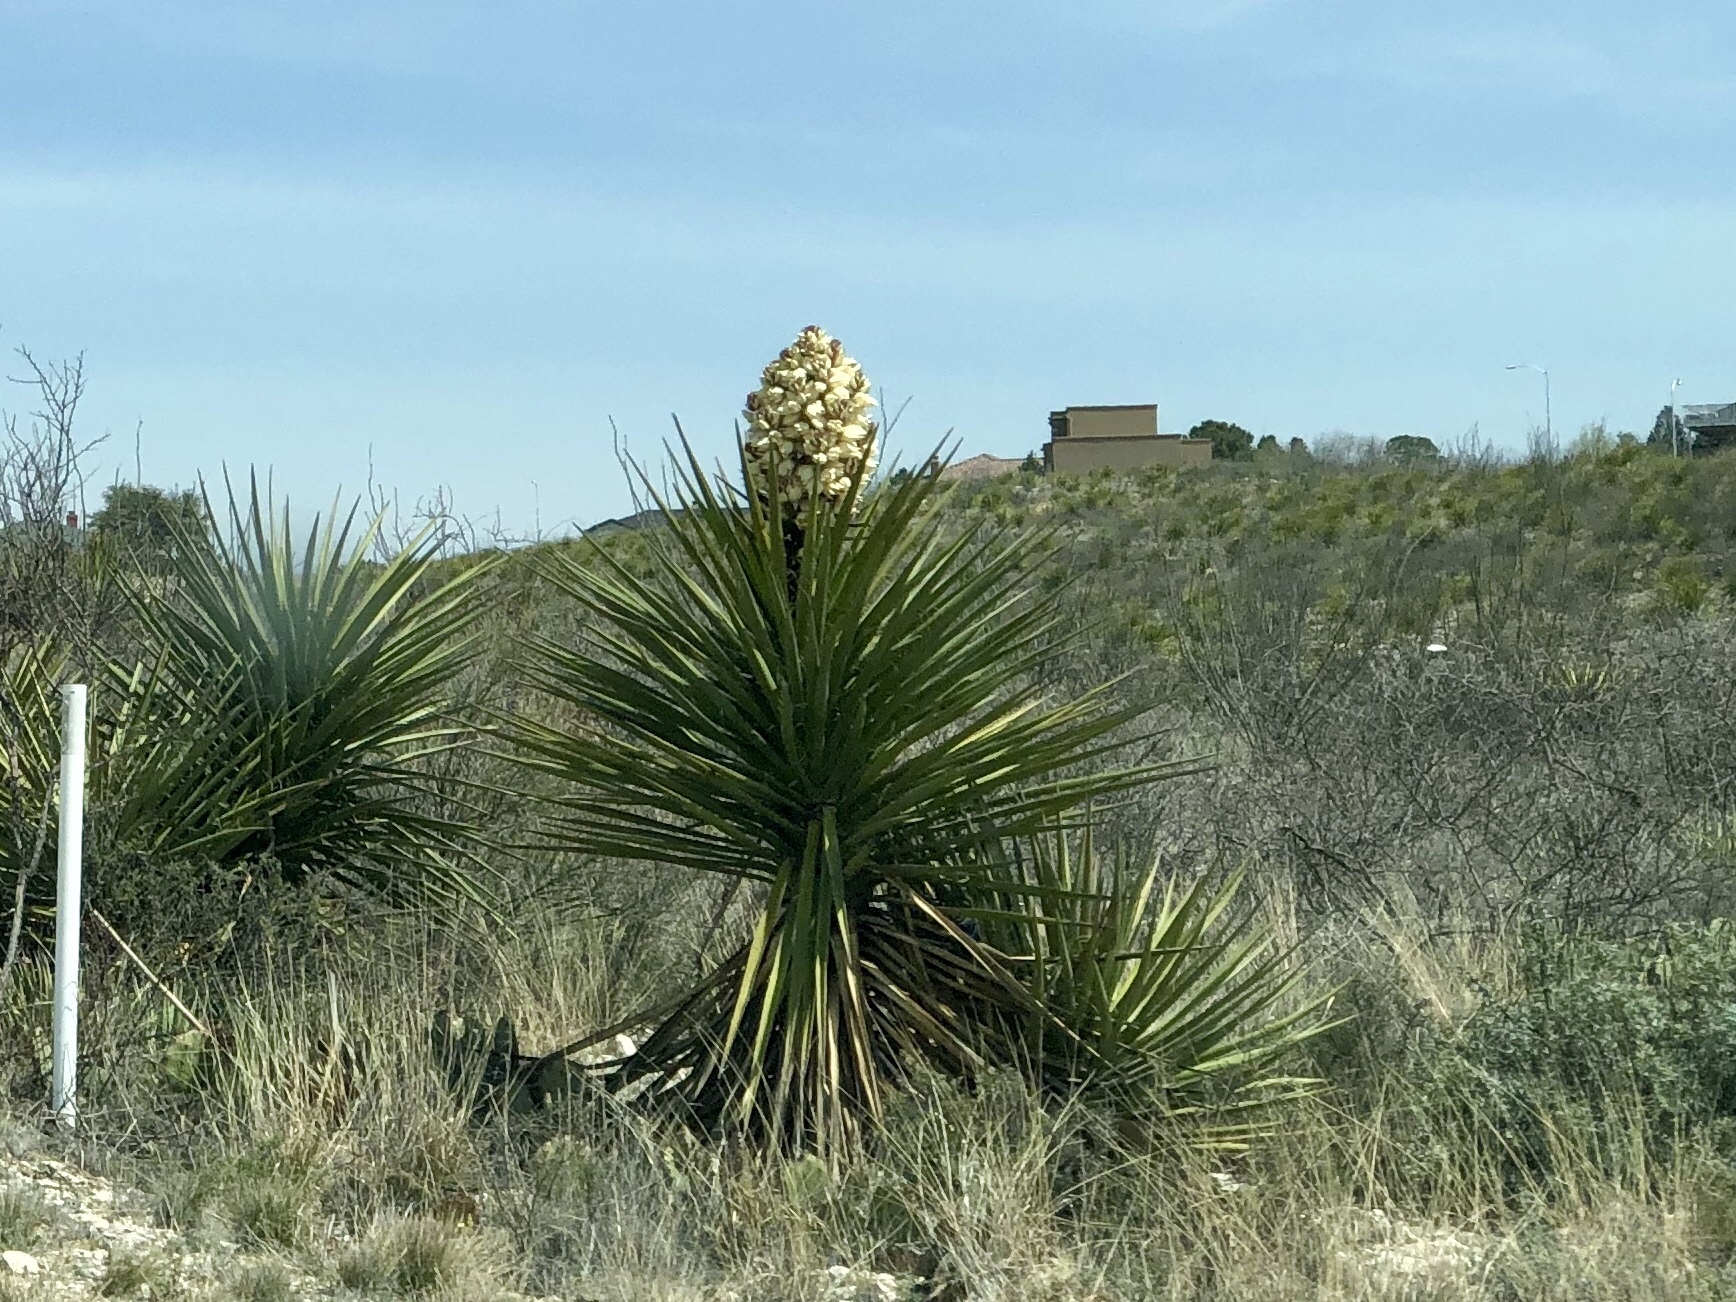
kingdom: Plantae
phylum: Tracheophyta
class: Liliopsida
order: Asparagales
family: Asparagaceae
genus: Yucca
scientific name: Yucca treculiana
